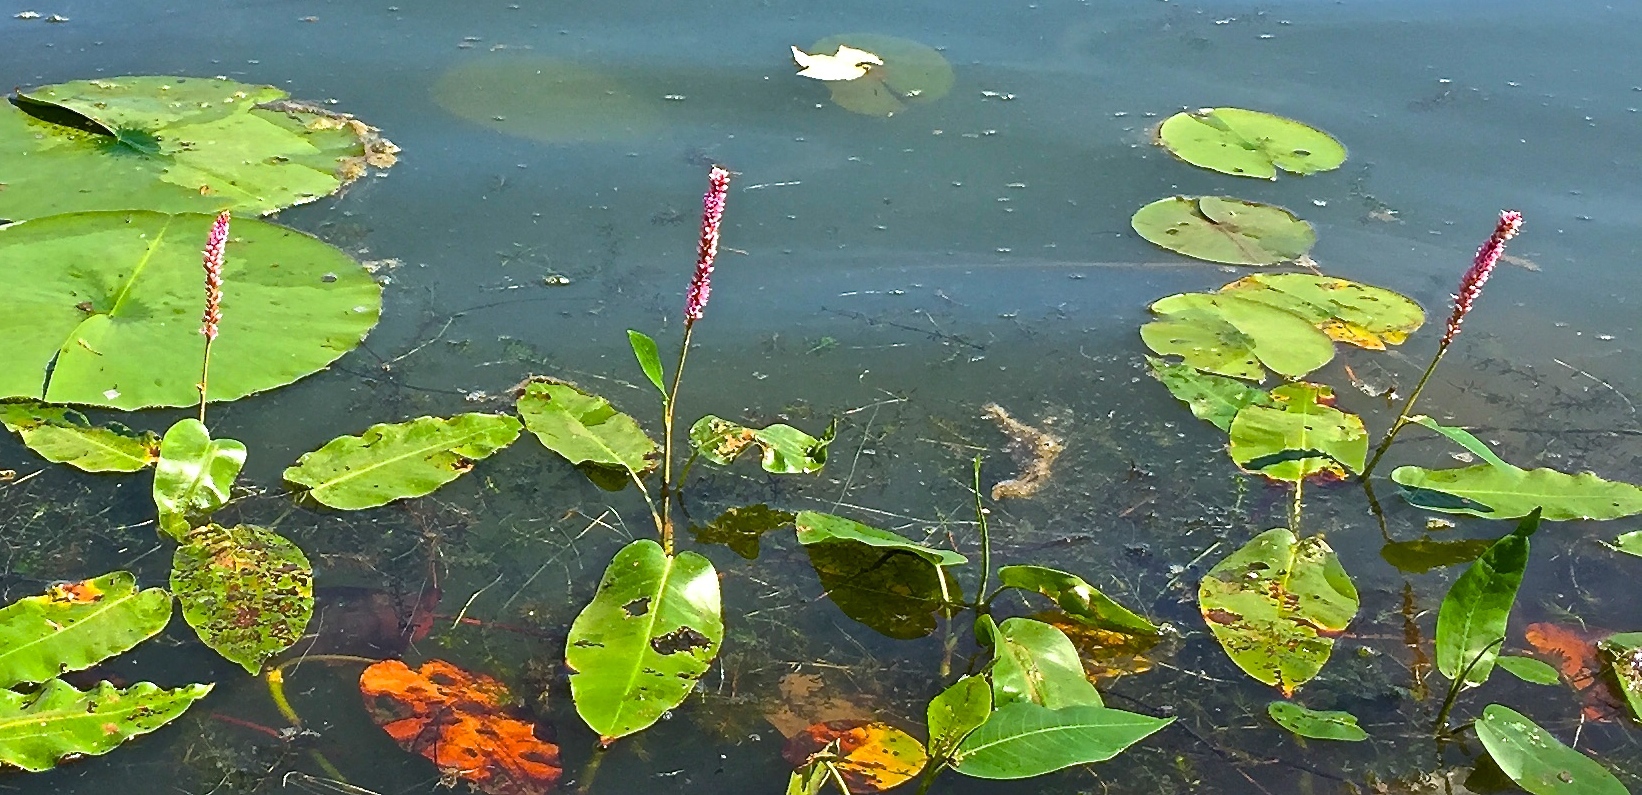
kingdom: Plantae
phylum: Tracheophyta
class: Magnoliopsida
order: Caryophyllales
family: Polygonaceae
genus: Persicaria
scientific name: Persicaria amphibia
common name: Amphibious bistort
